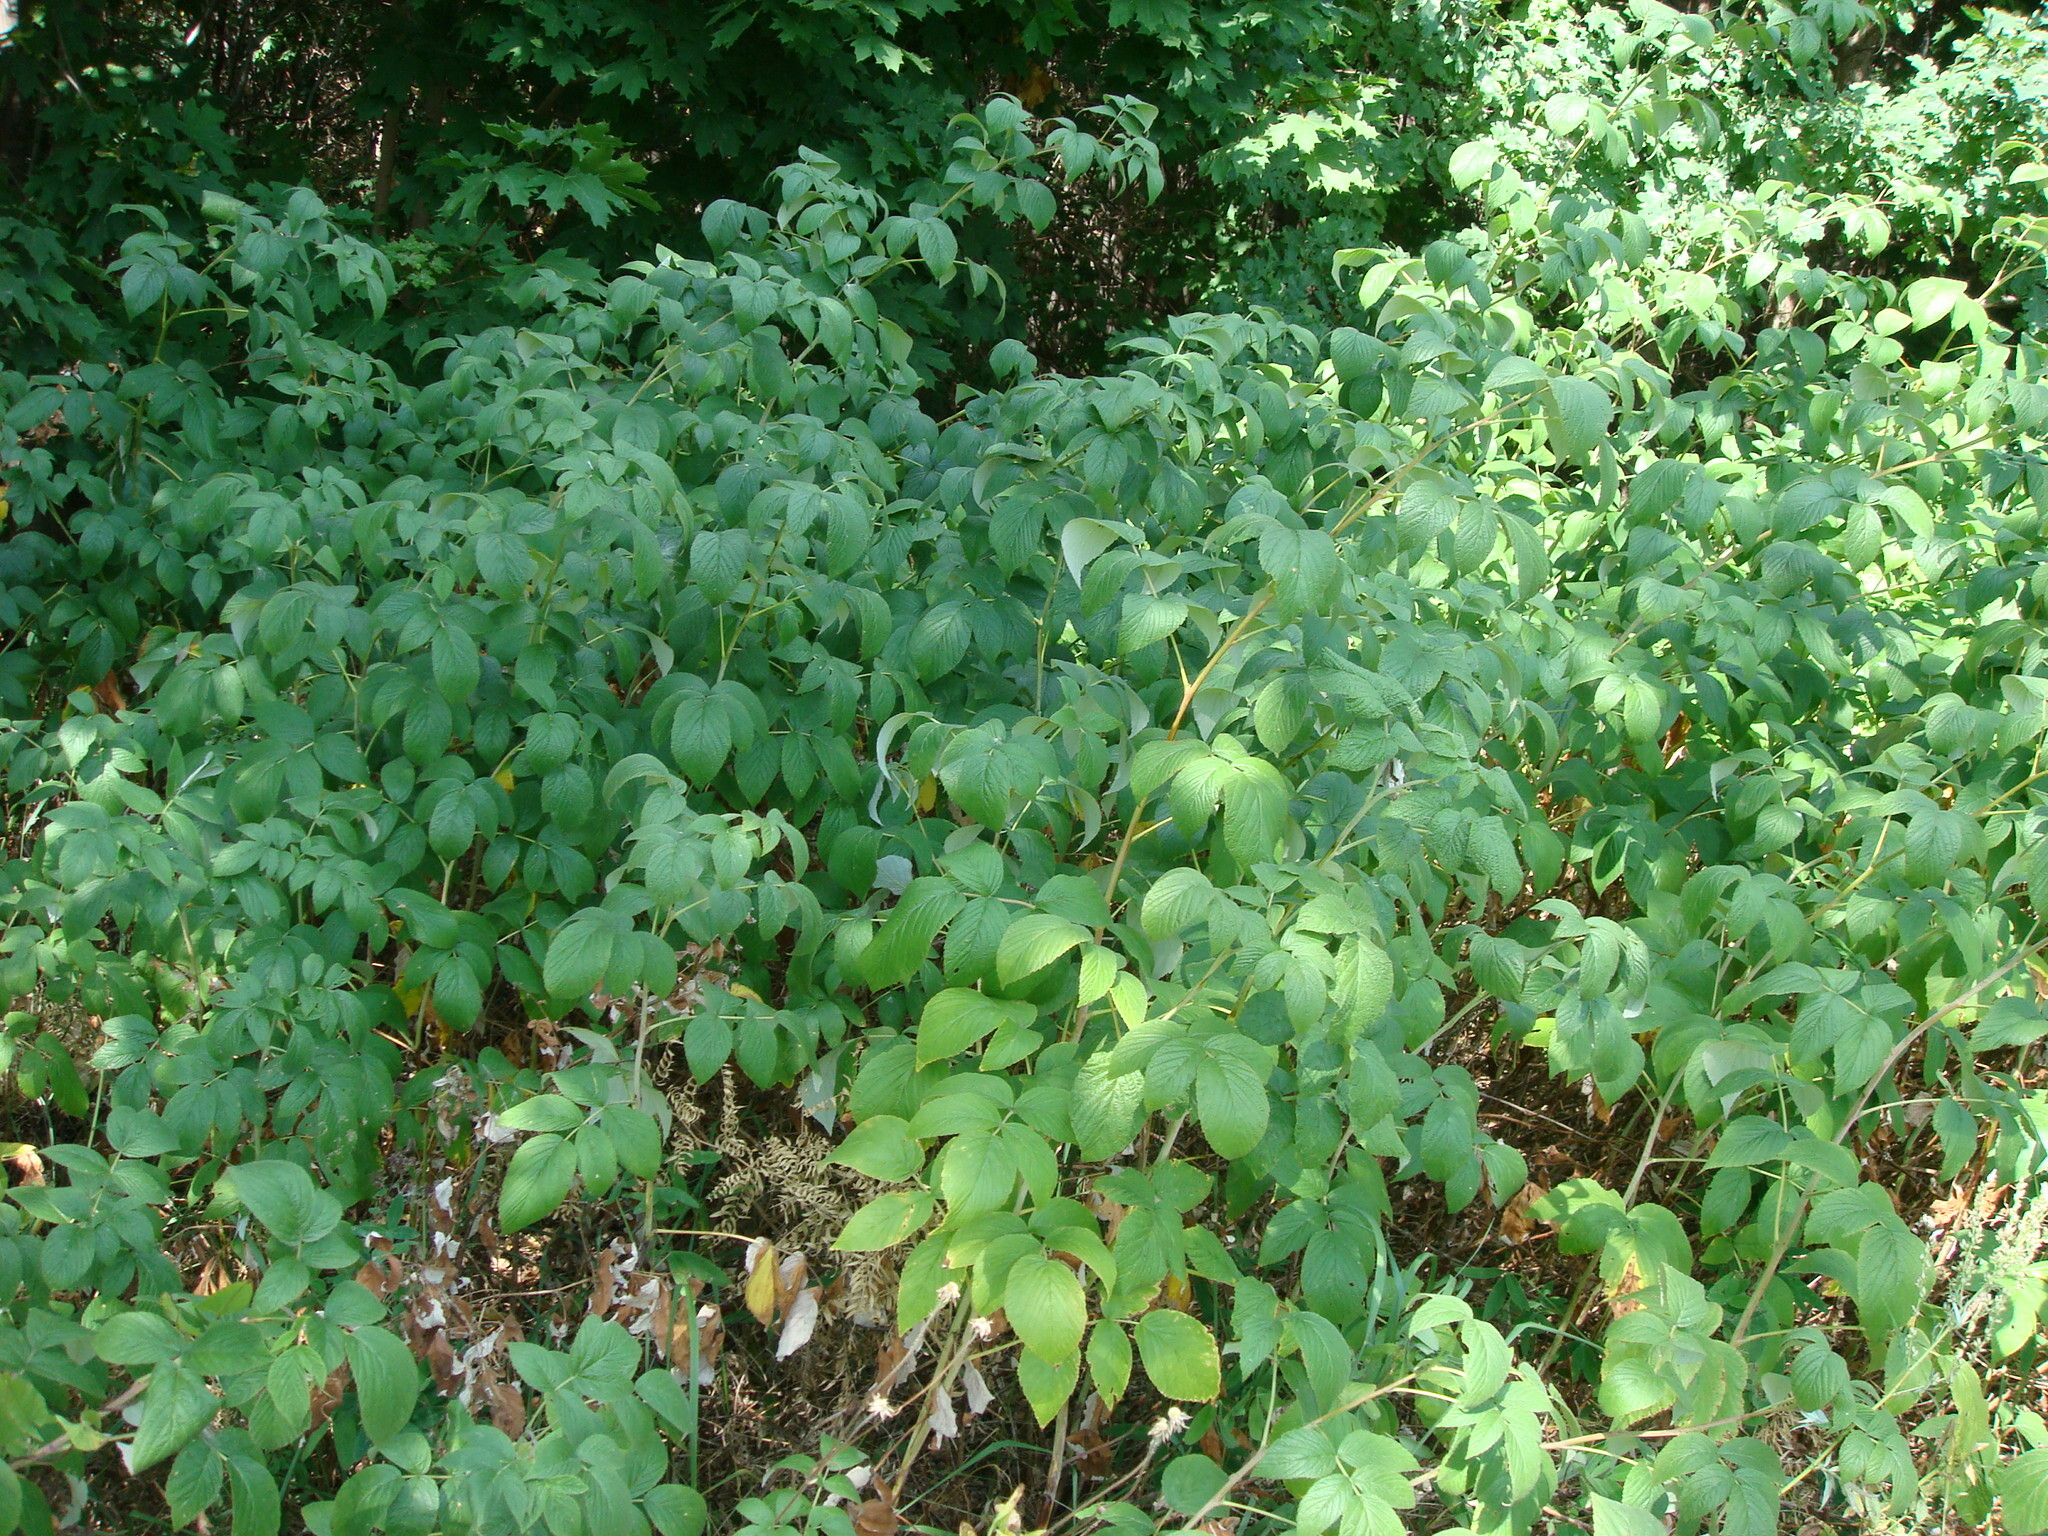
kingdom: Plantae
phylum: Tracheophyta
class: Magnoliopsida
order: Rosales
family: Rosaceae
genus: Rubus
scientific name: Rubus idaeus
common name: Raspberry
